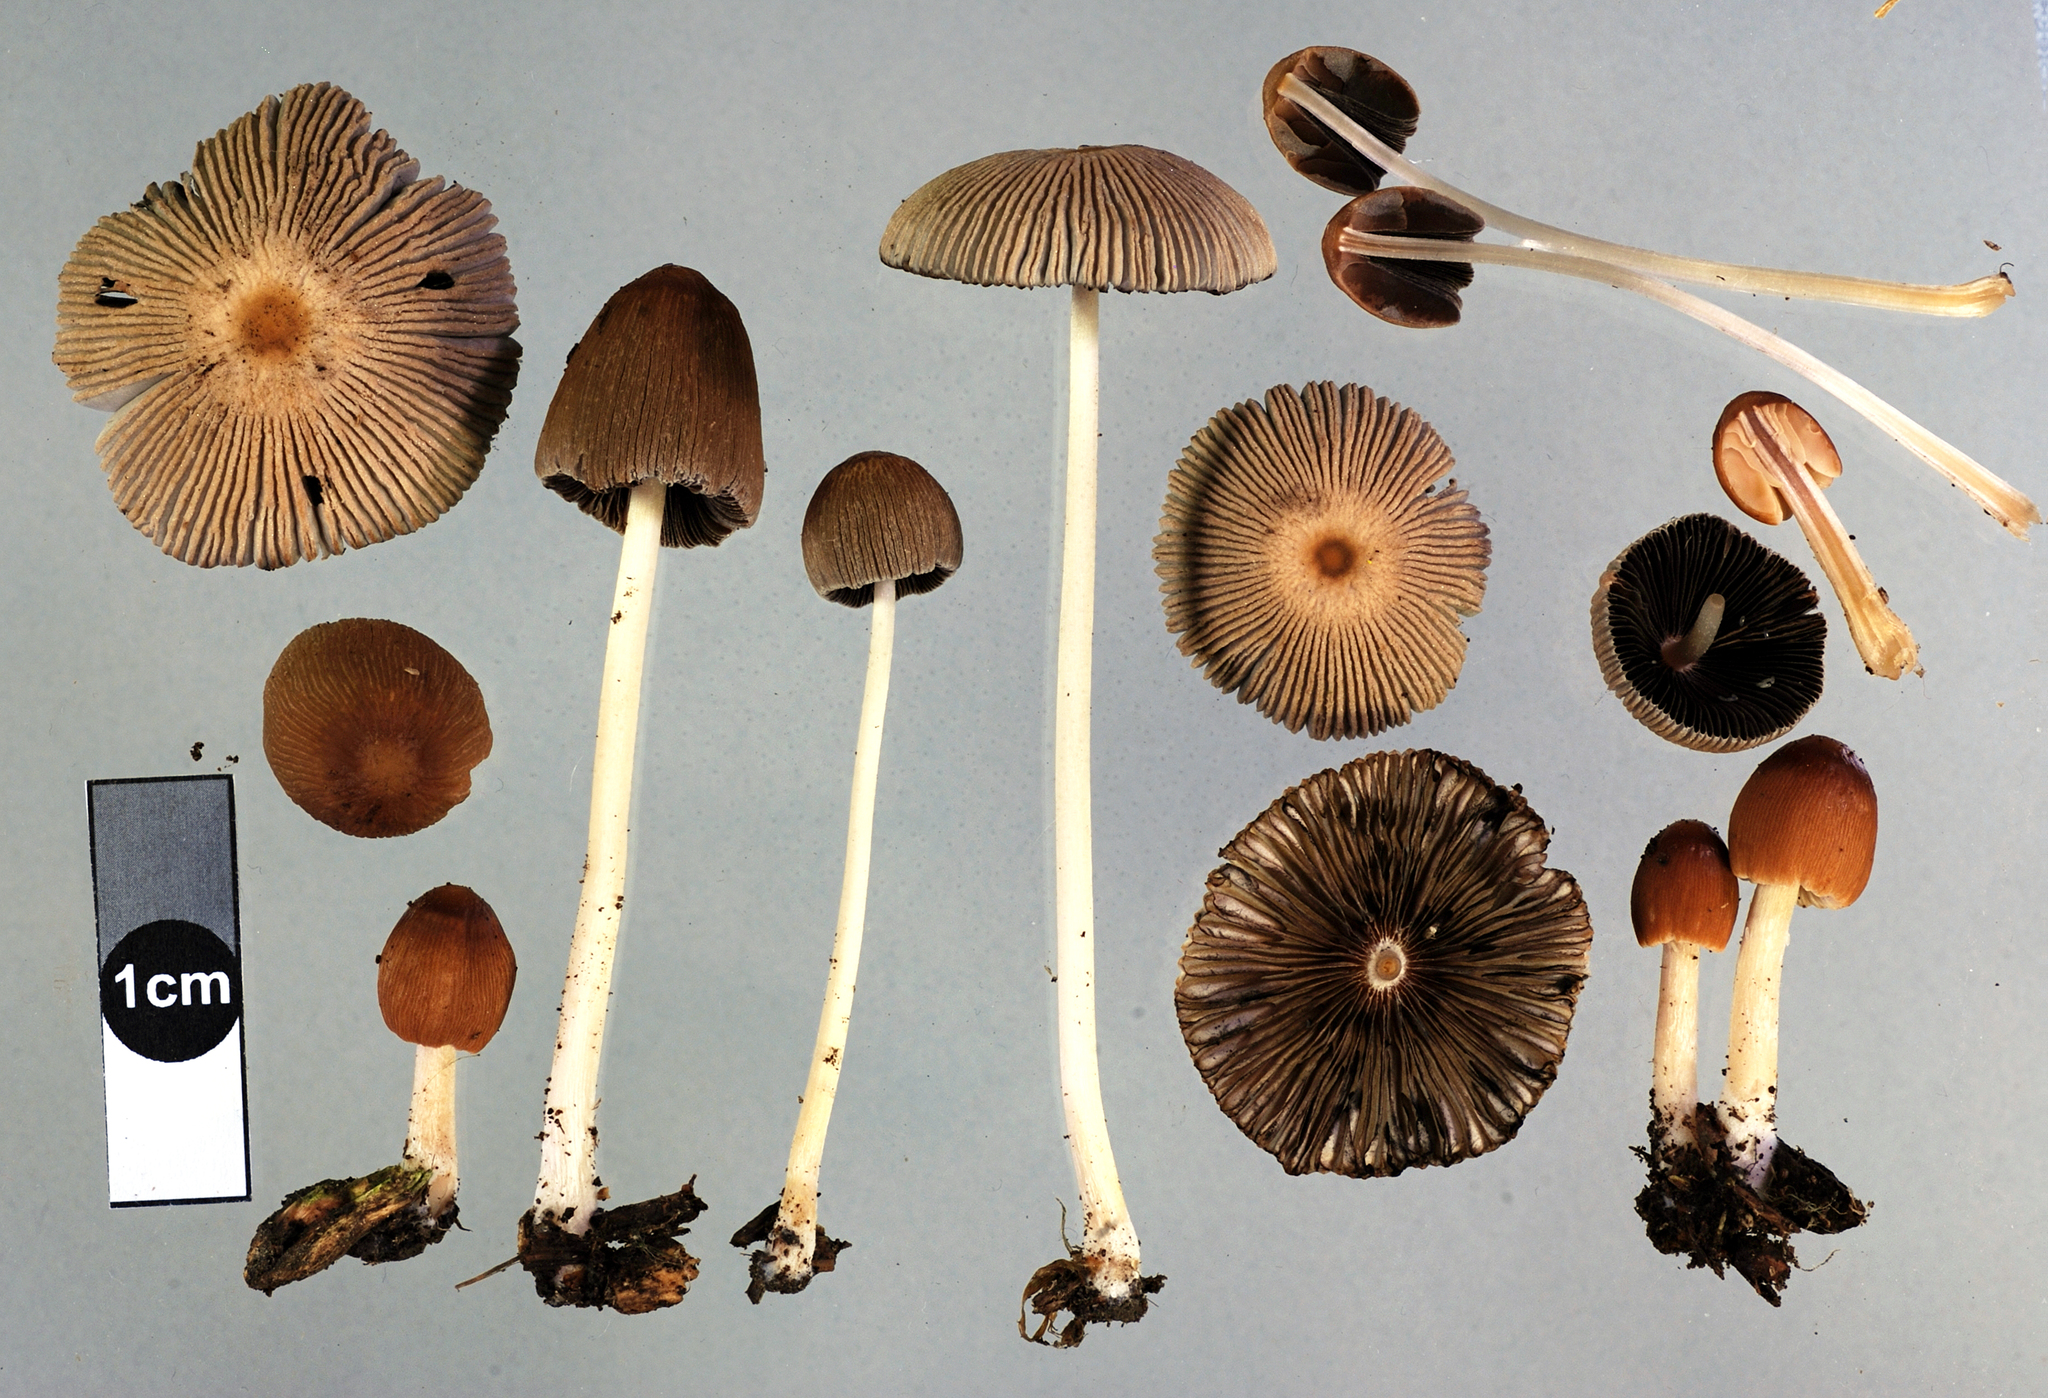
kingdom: Fungi
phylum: Basidiomycota
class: Agaricomycetes
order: Agaricales
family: Psathyrellaceae
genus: Parasola
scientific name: Parasola auricoma
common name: Goldenhaired inkcap
